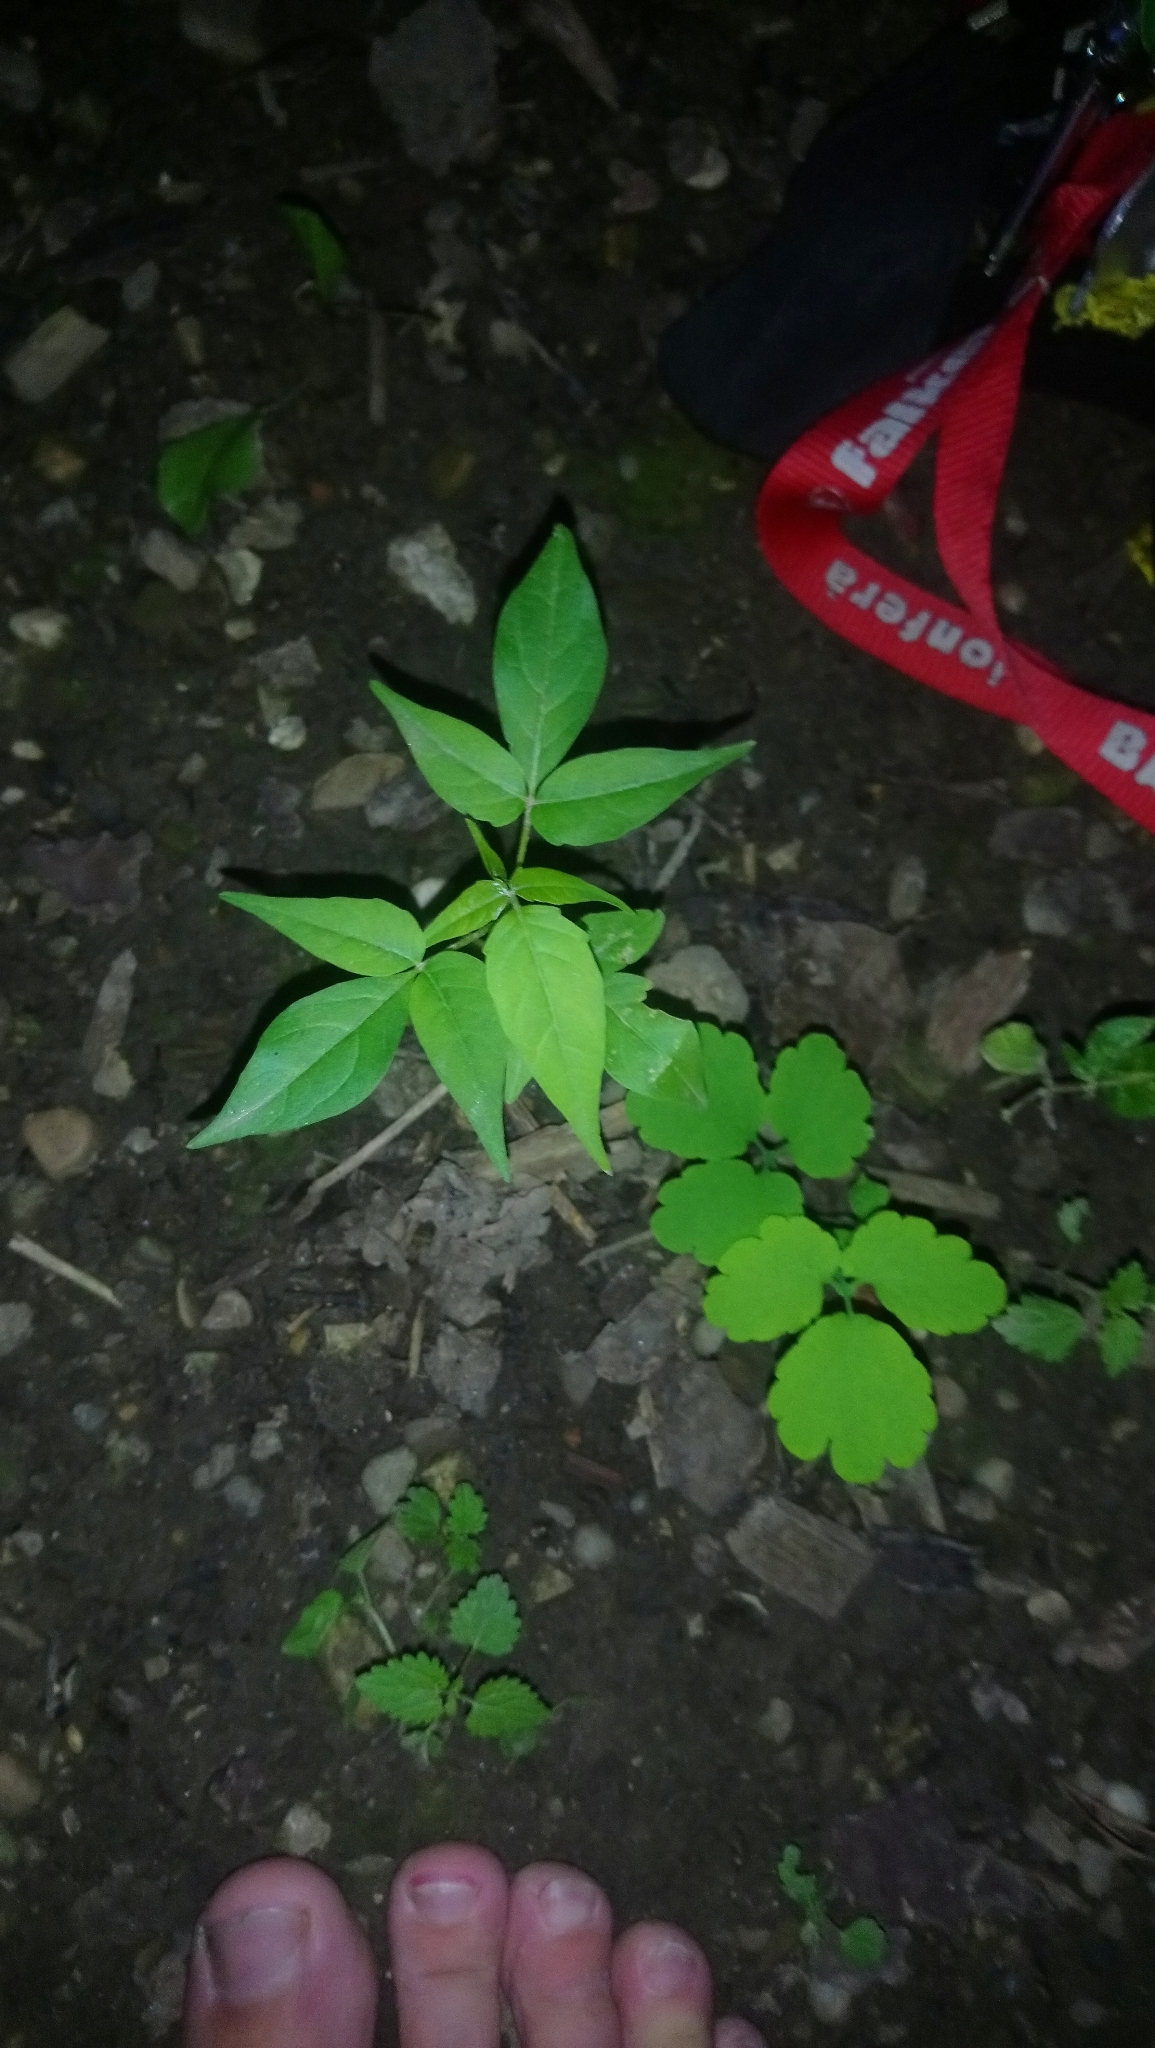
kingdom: Plantae
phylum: Tracheophyta
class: Magnoliopsida
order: Sapindales
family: Simaroubaceae
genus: Ailanthus
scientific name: Ailanthus altissima
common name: Tree-of-heaven
